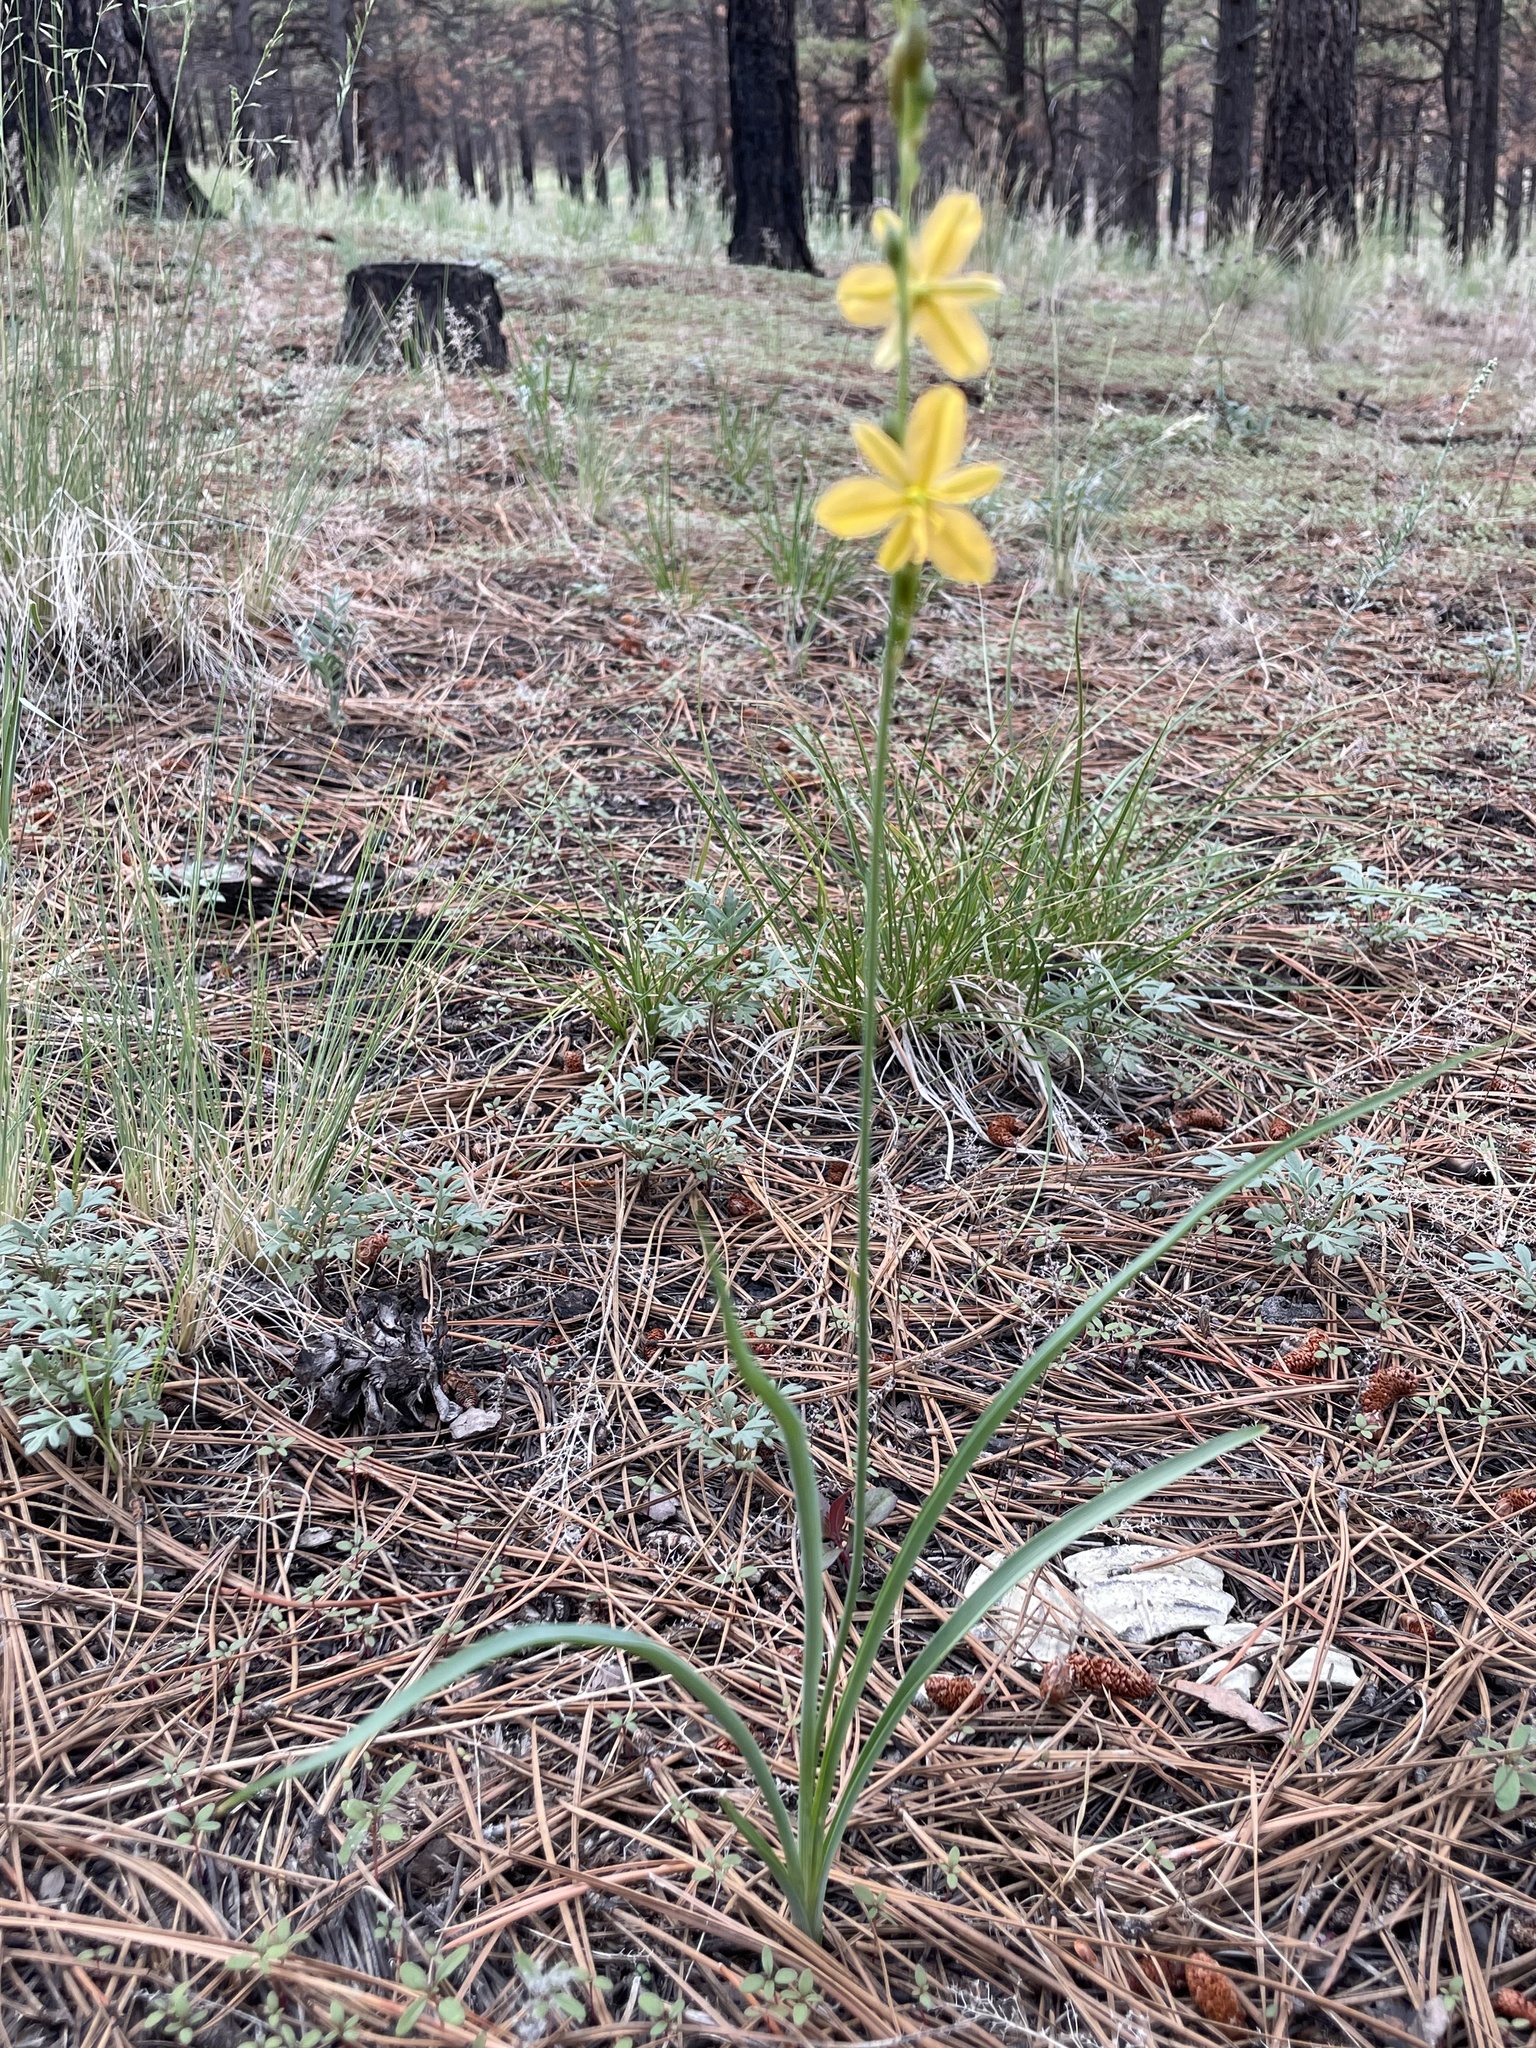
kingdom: Plantae
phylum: Tracheophyta
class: Liliopsida
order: Asparagales
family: Asparagaceae
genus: Echeandia
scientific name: Echeandia flavescens
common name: Amberlily
